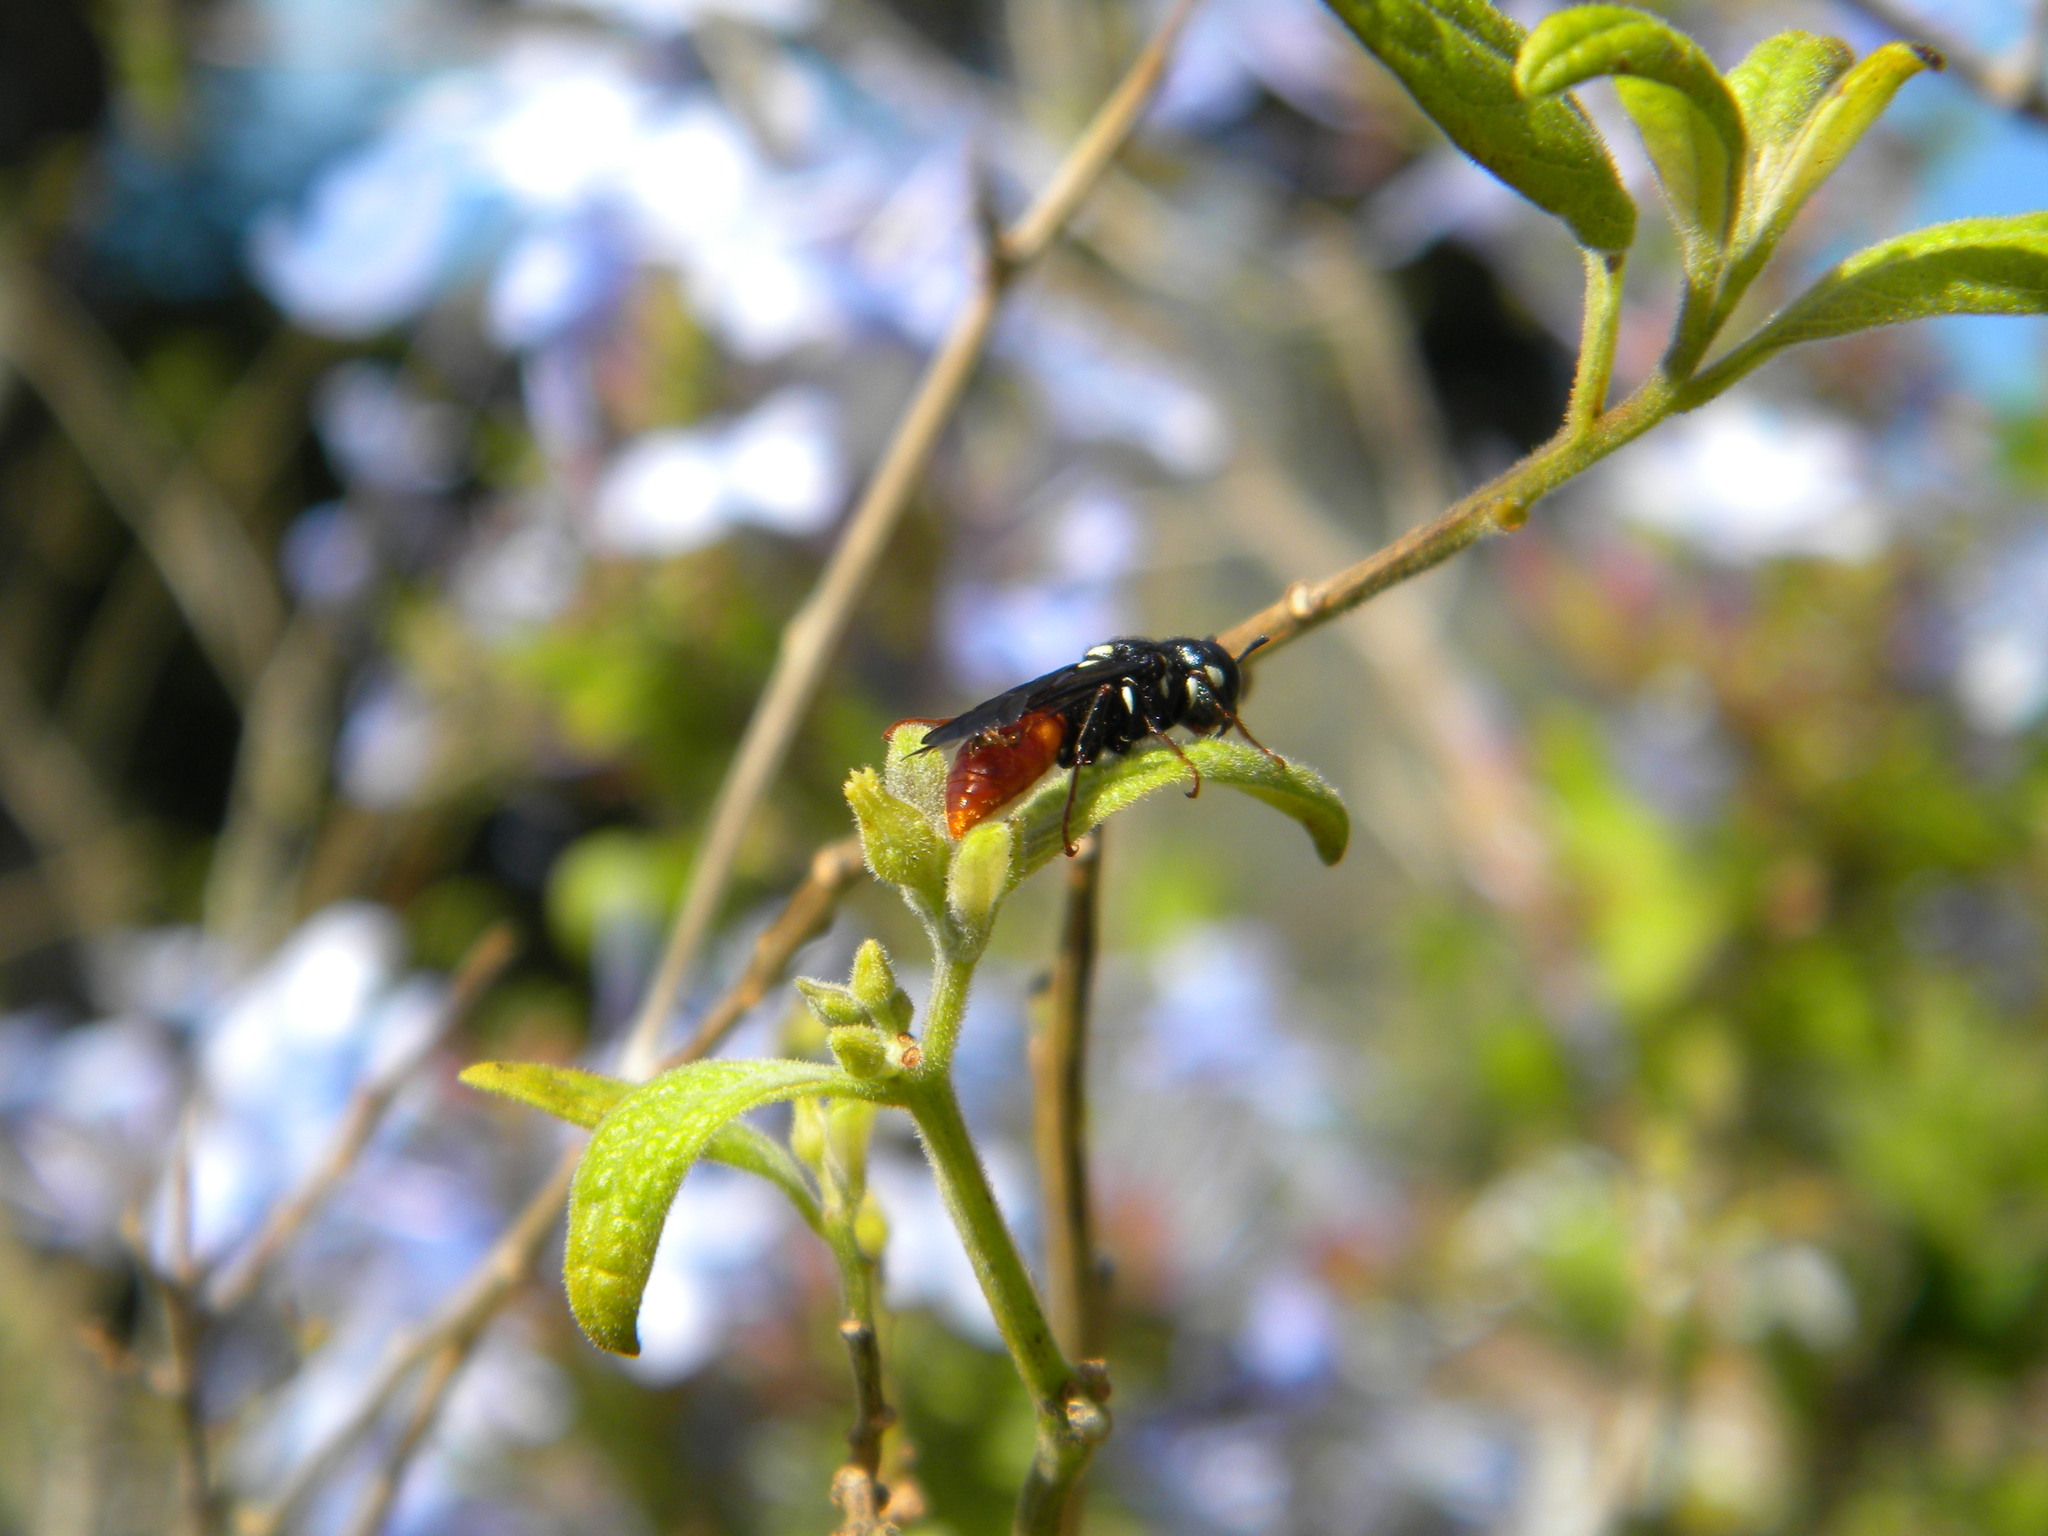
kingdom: Animalia
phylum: Arthropoda
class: Insecta
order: Hymenoptera
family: Crabronidae
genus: Philanthus
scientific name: Philanthus loeflingi
